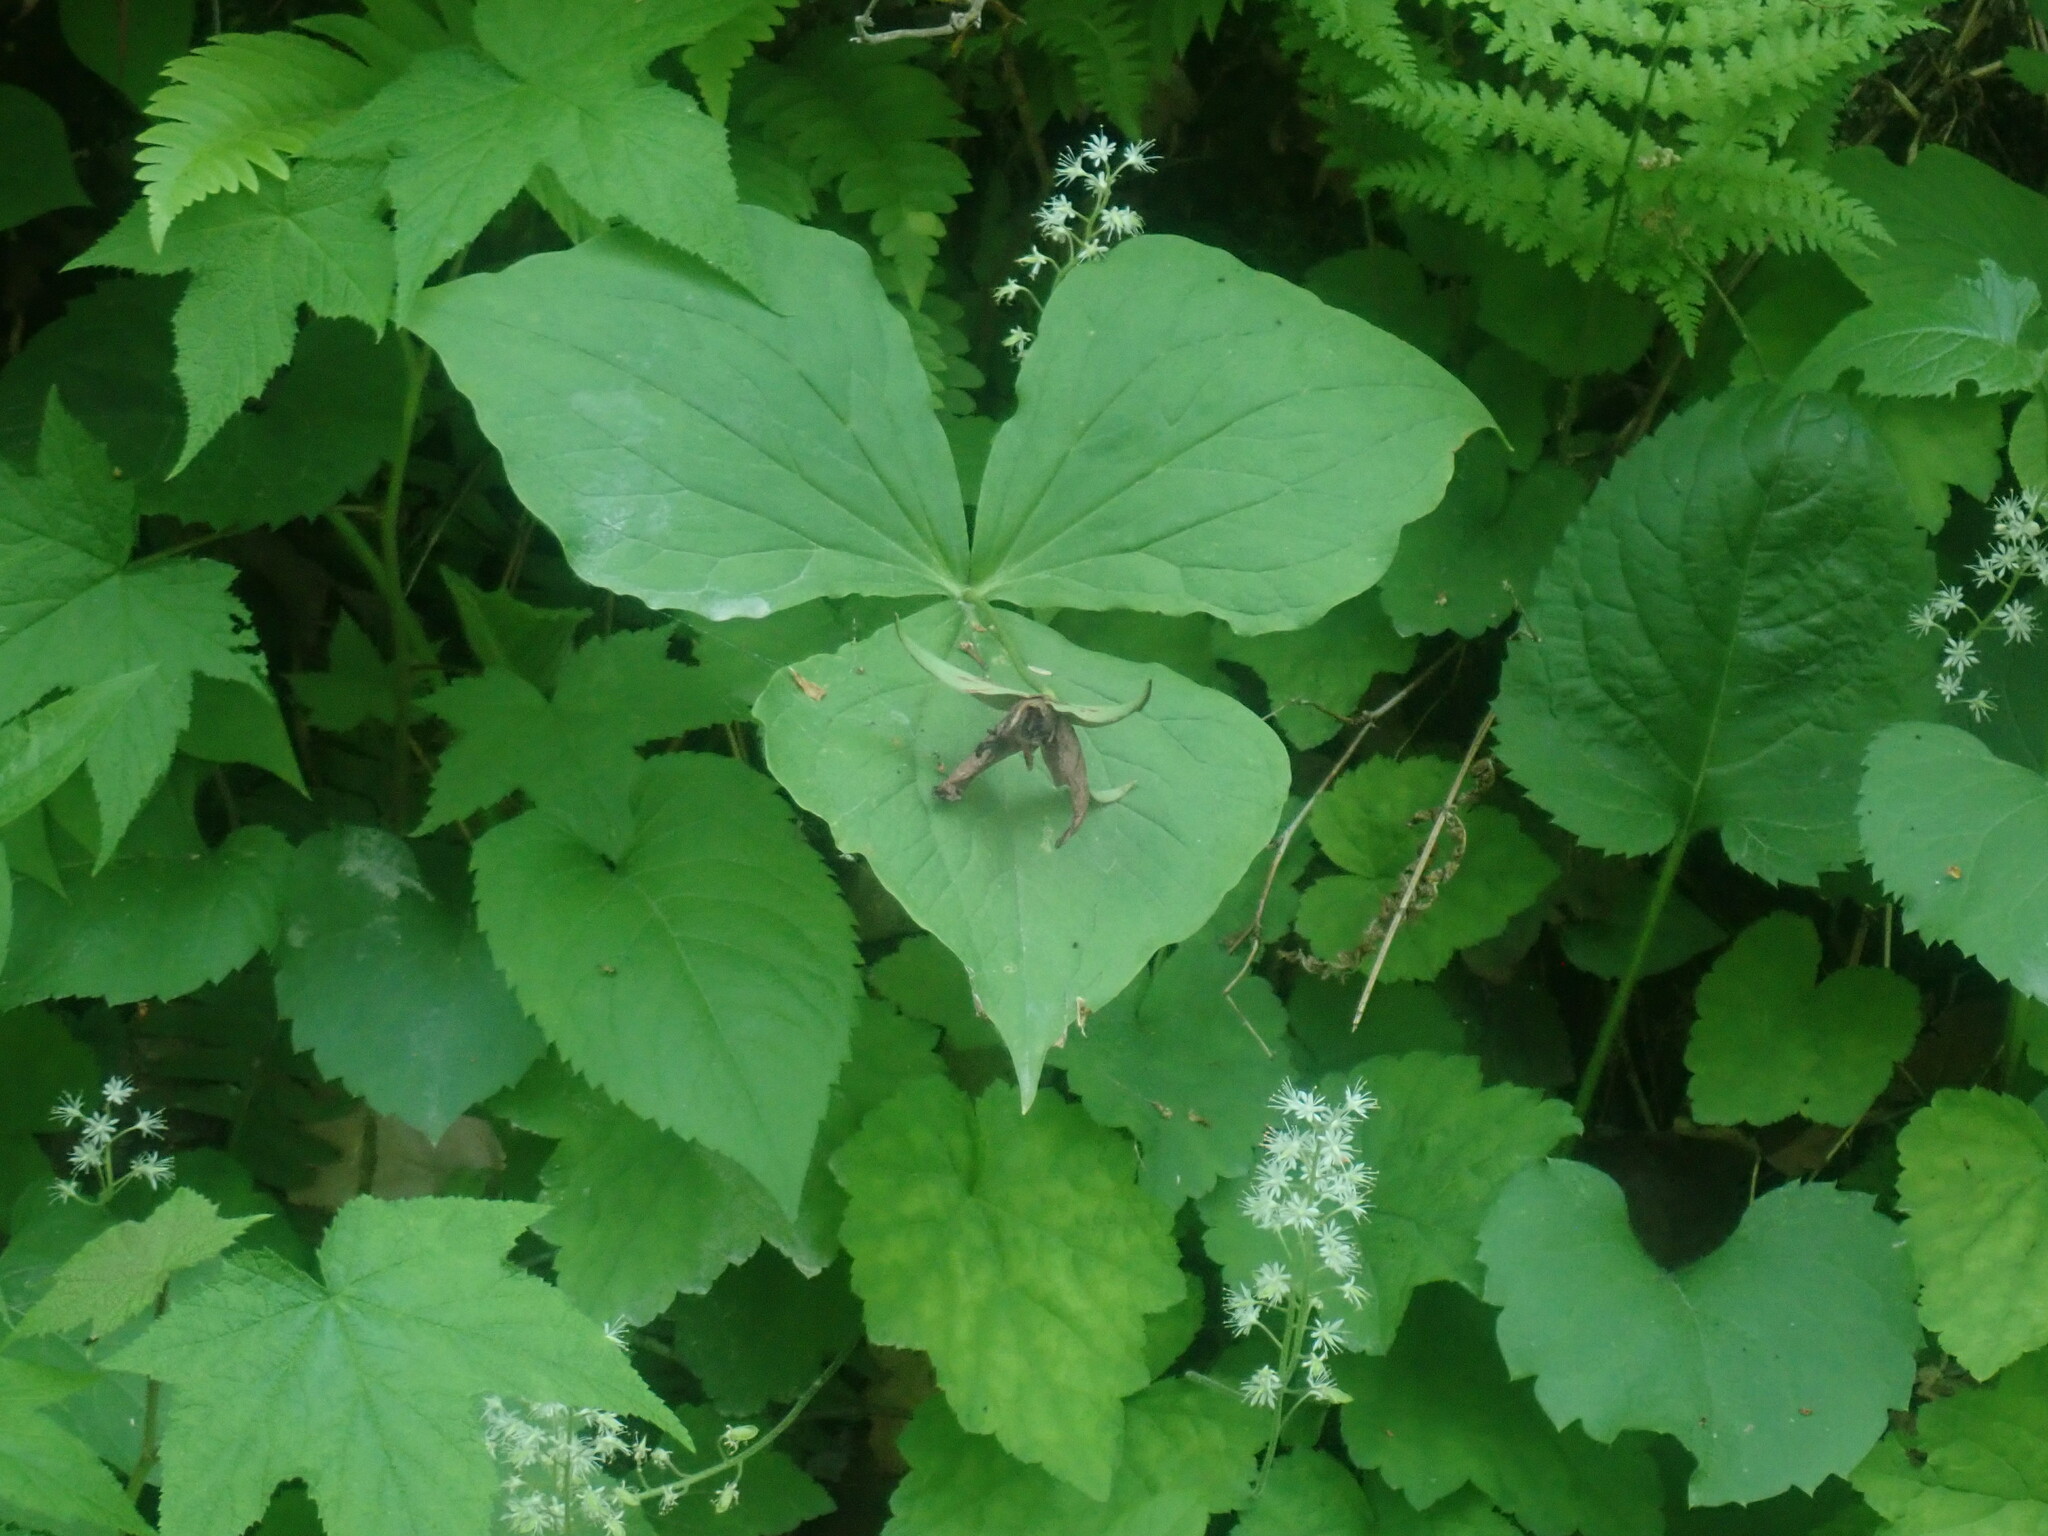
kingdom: Plantae
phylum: Tracheophyta
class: Liliopsida
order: Liliales
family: Melanthiaceae
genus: Trillium
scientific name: Trillium erectum
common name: Purple trillium
